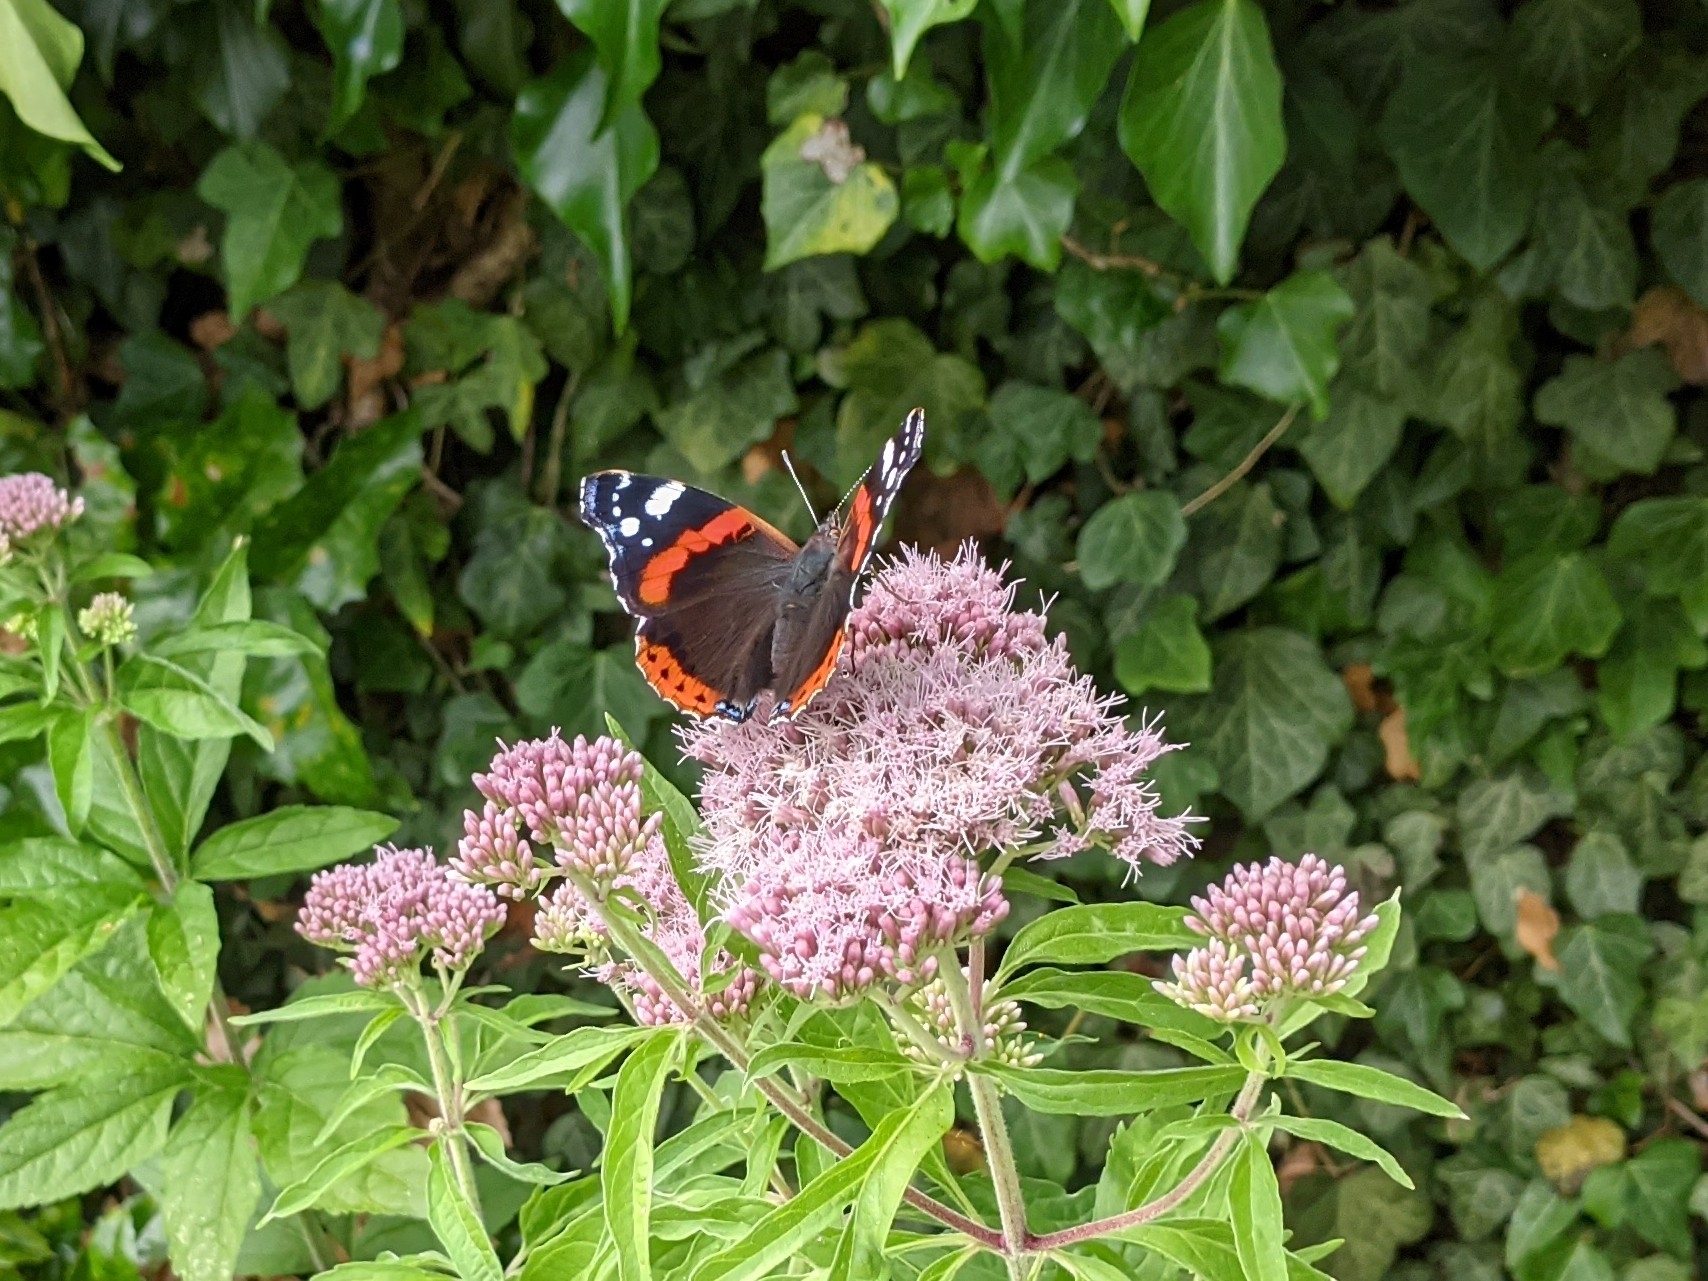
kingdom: Animalia
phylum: Arthropoda
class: Insecta
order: Lepidoptera
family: Nymphalidae
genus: Vanessa
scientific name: Vanessa atalanta
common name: Red admiral
